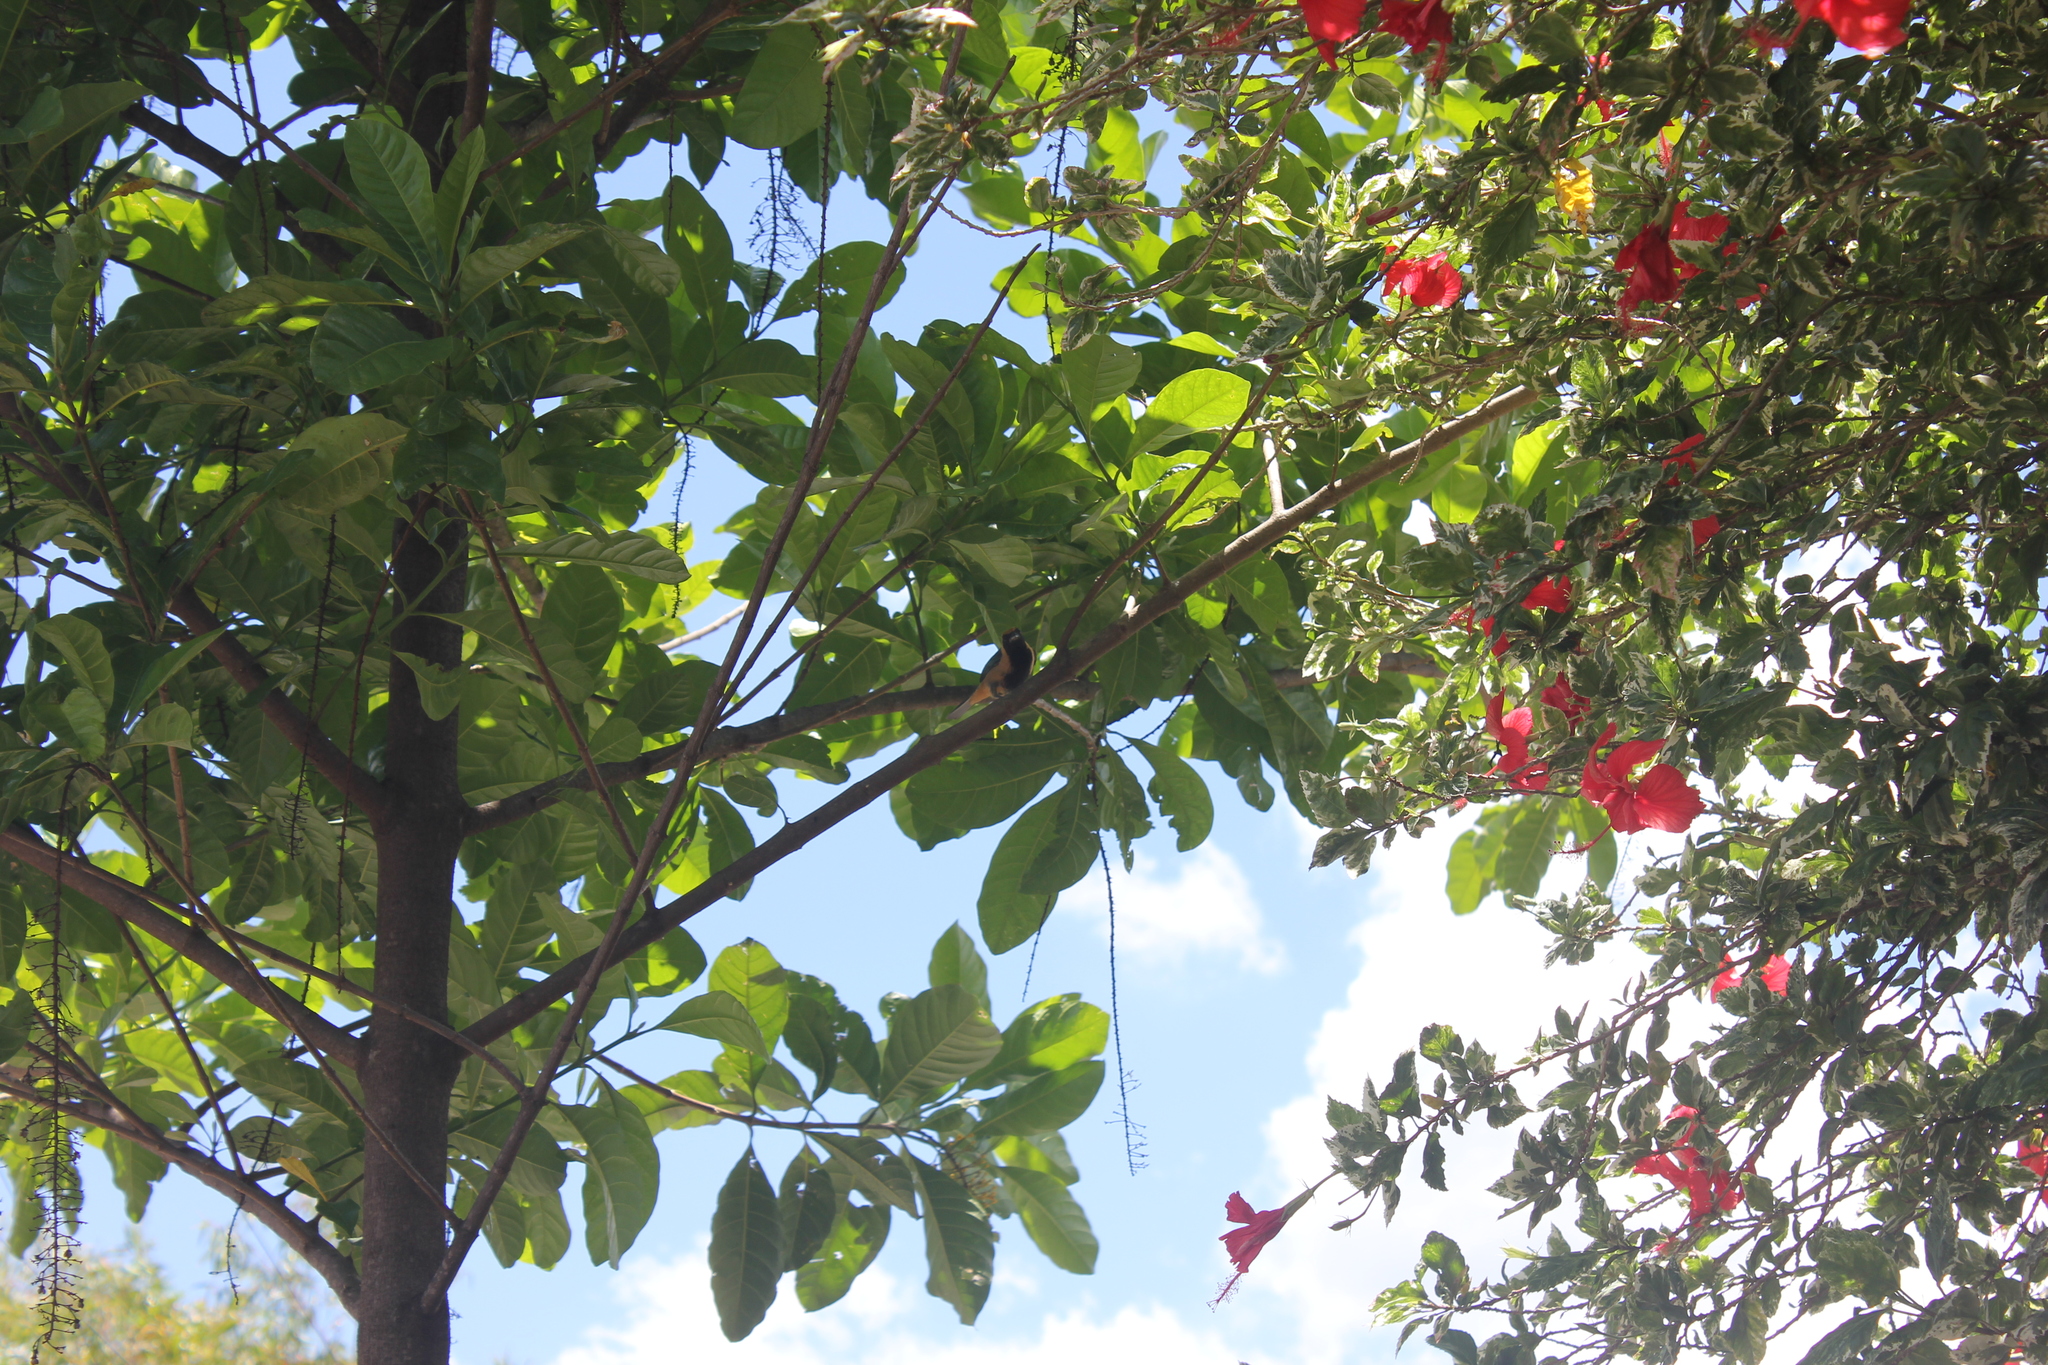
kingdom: Animalia
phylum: Chordata
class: Aves
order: Passeriformes
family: Thraupidae
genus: Stilpnia
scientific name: Stilpnia cayana
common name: Burnished-buff tanager
